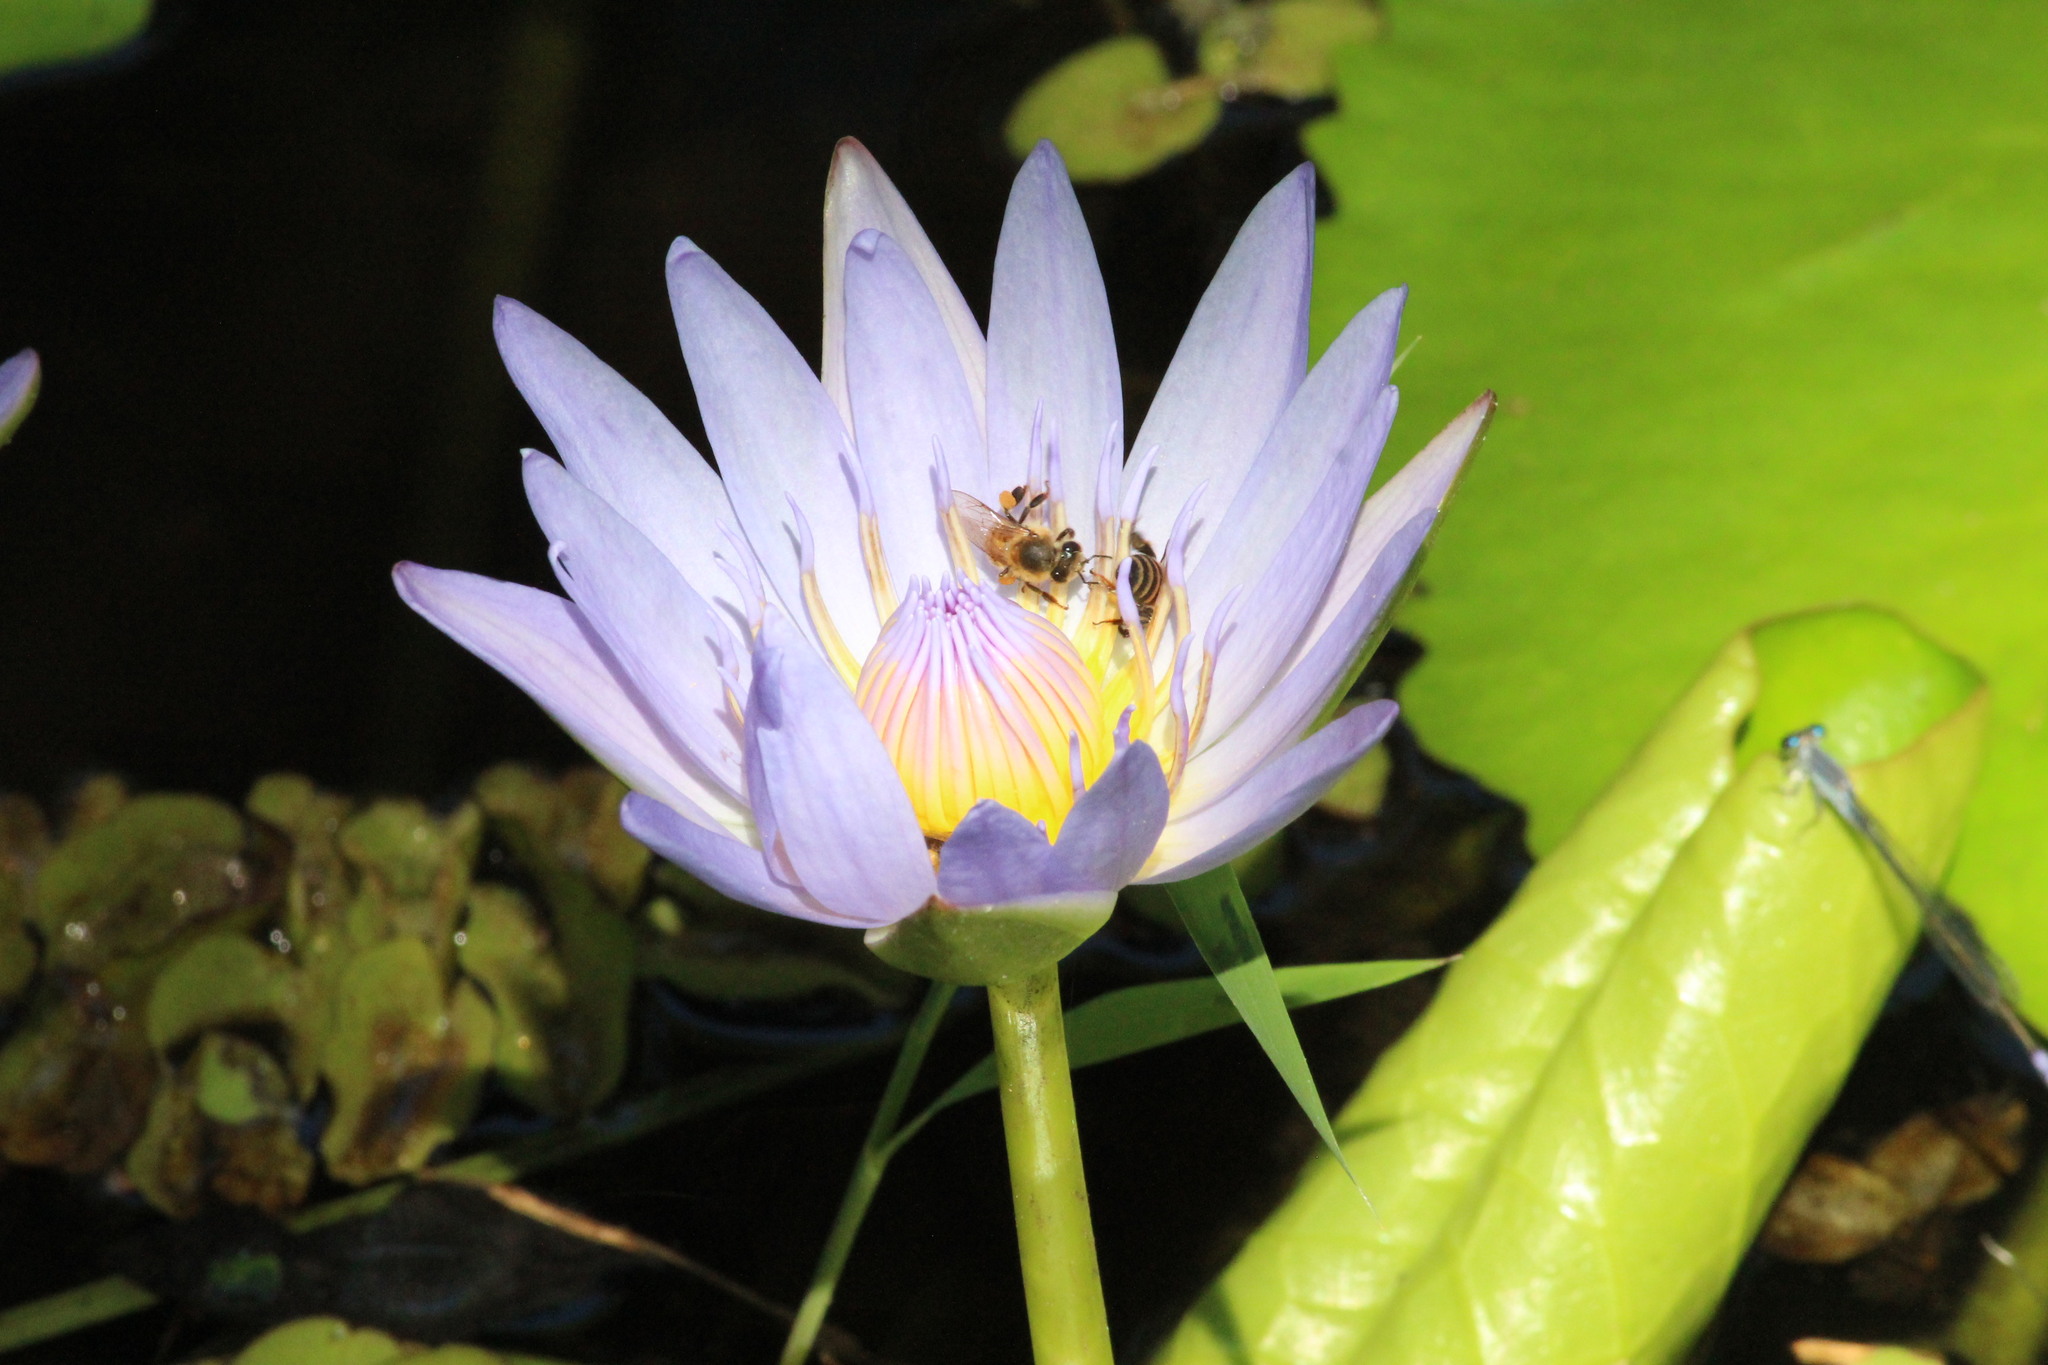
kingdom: Animalia
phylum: Arthropoda
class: Insecta
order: Hymenoptera
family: Apidae
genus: Apis
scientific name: Apis mellifera
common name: Honey bee
